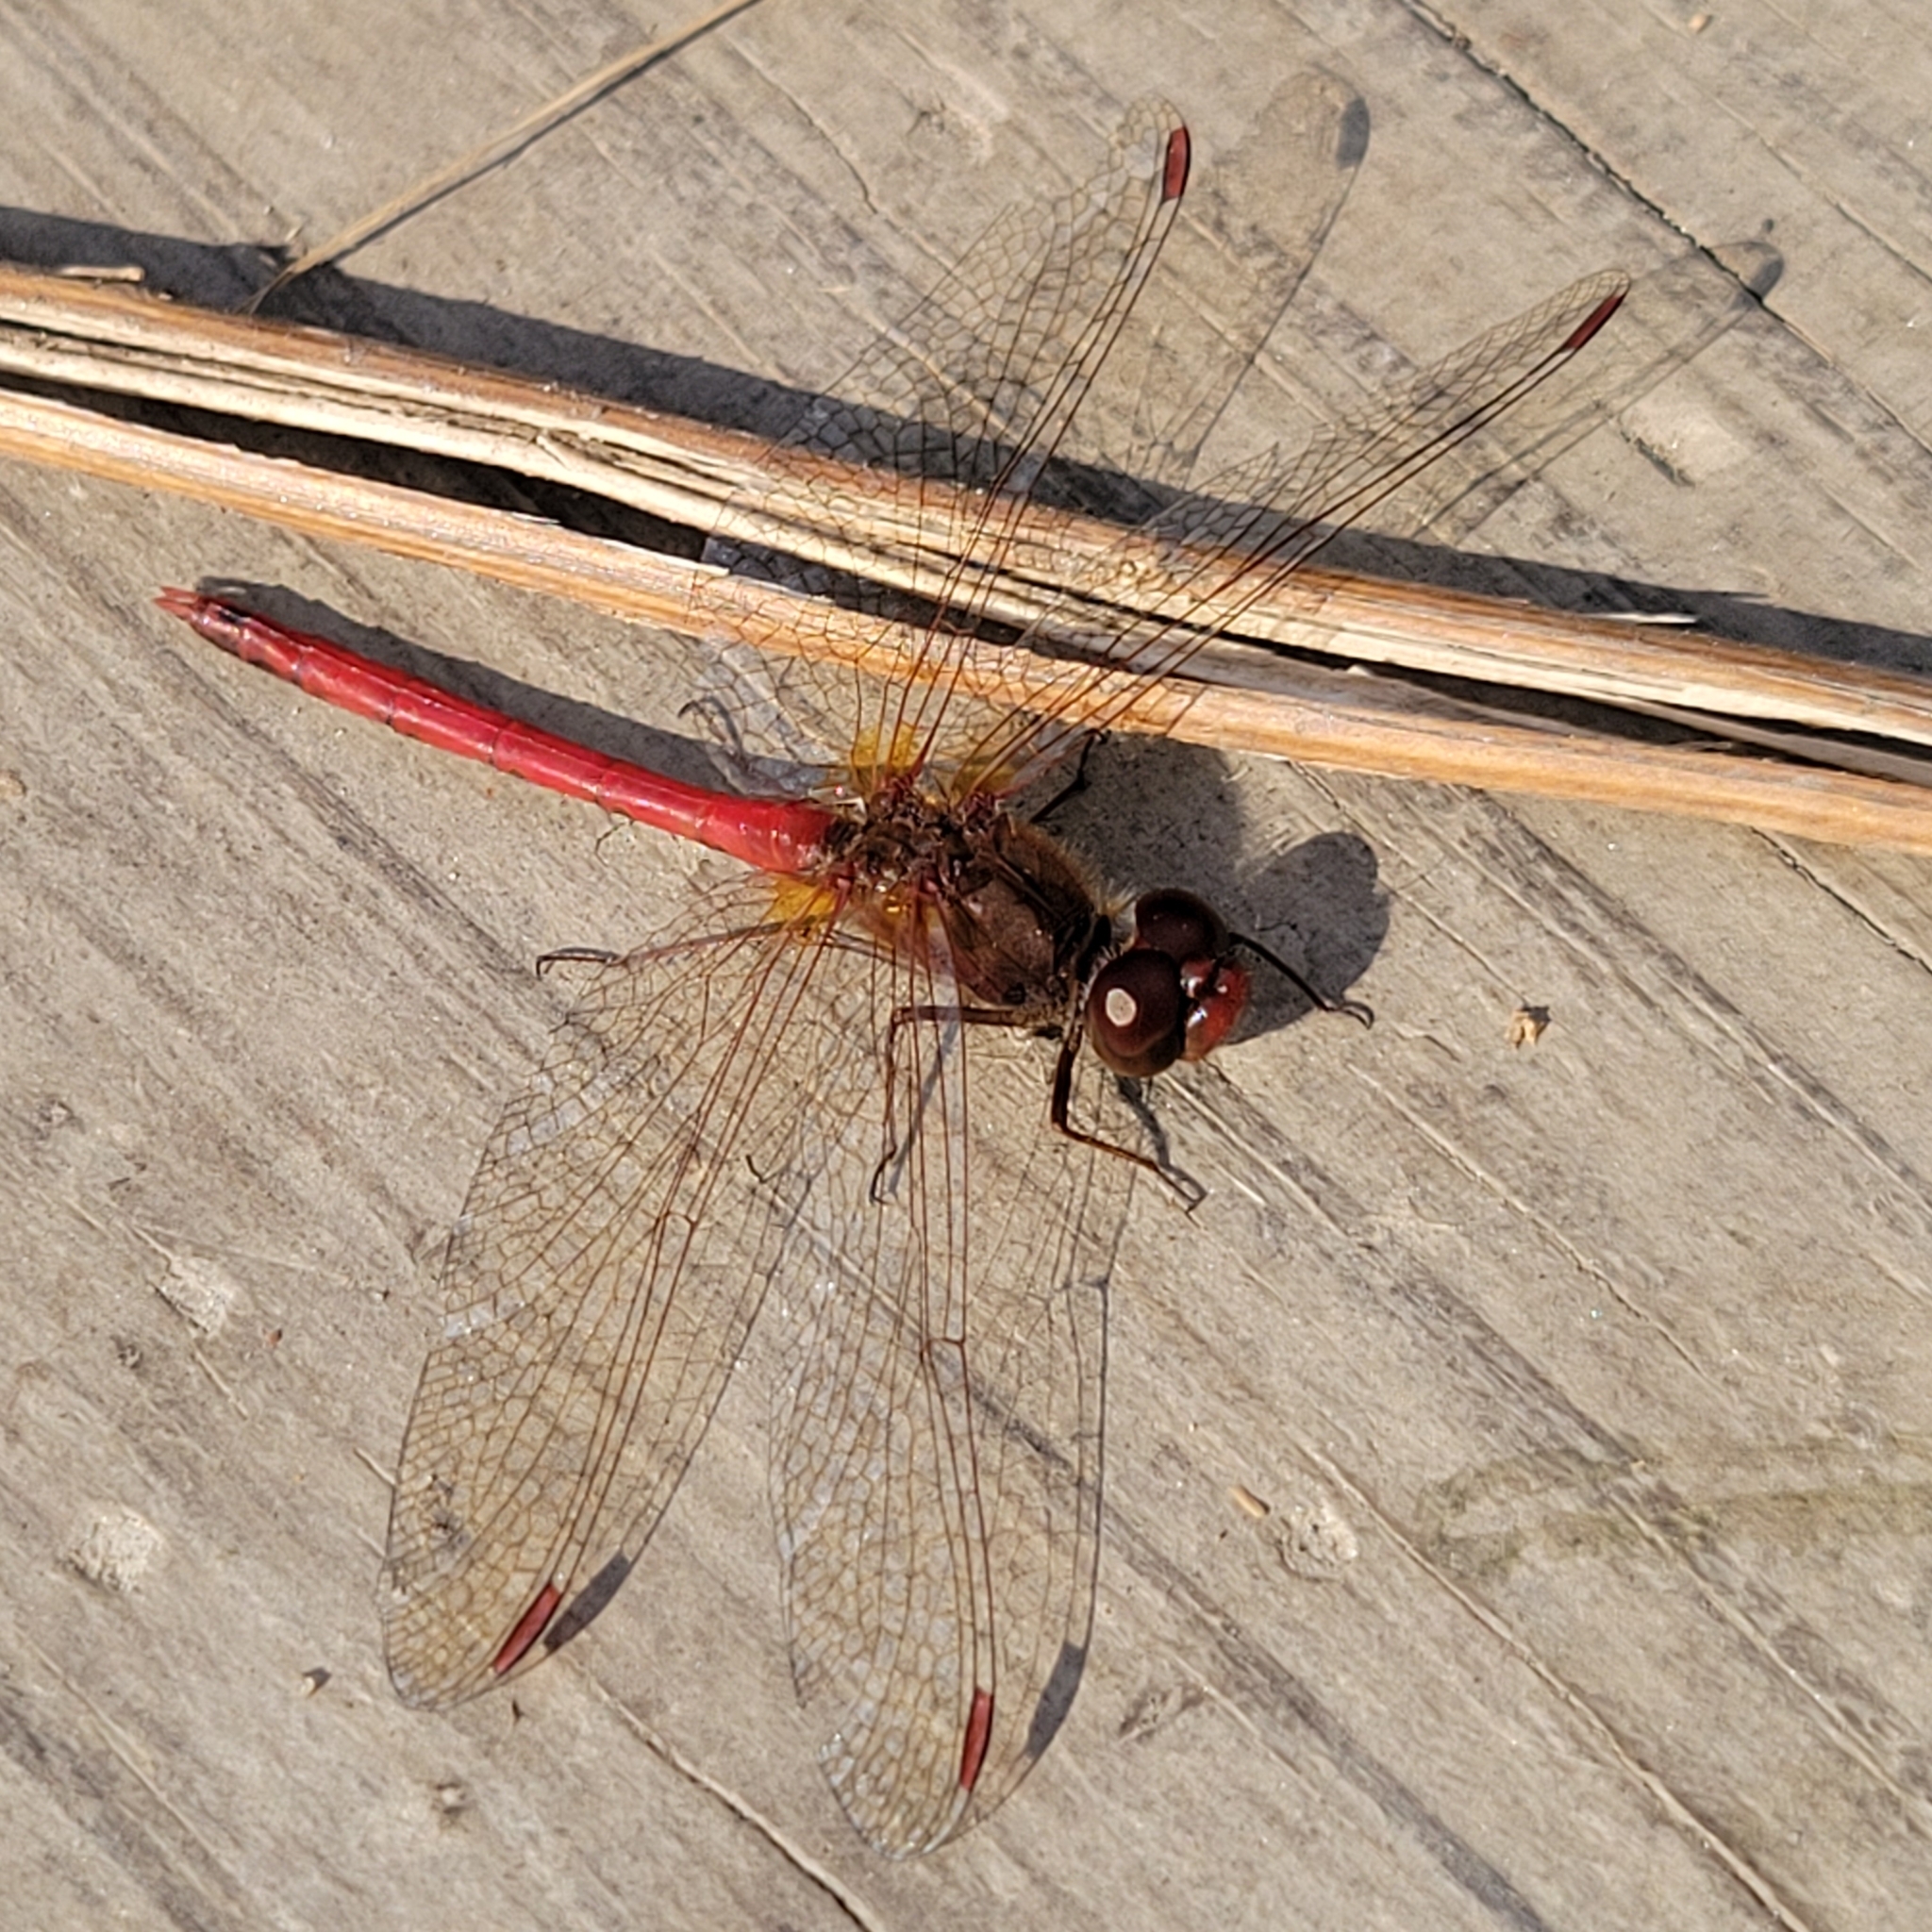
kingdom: Animalia
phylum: Arthropoda
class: Insecta
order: Odonata
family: Libellulidae
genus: Sympetrum
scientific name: Sympetrum vicinum
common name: Autumn meadowhawk
